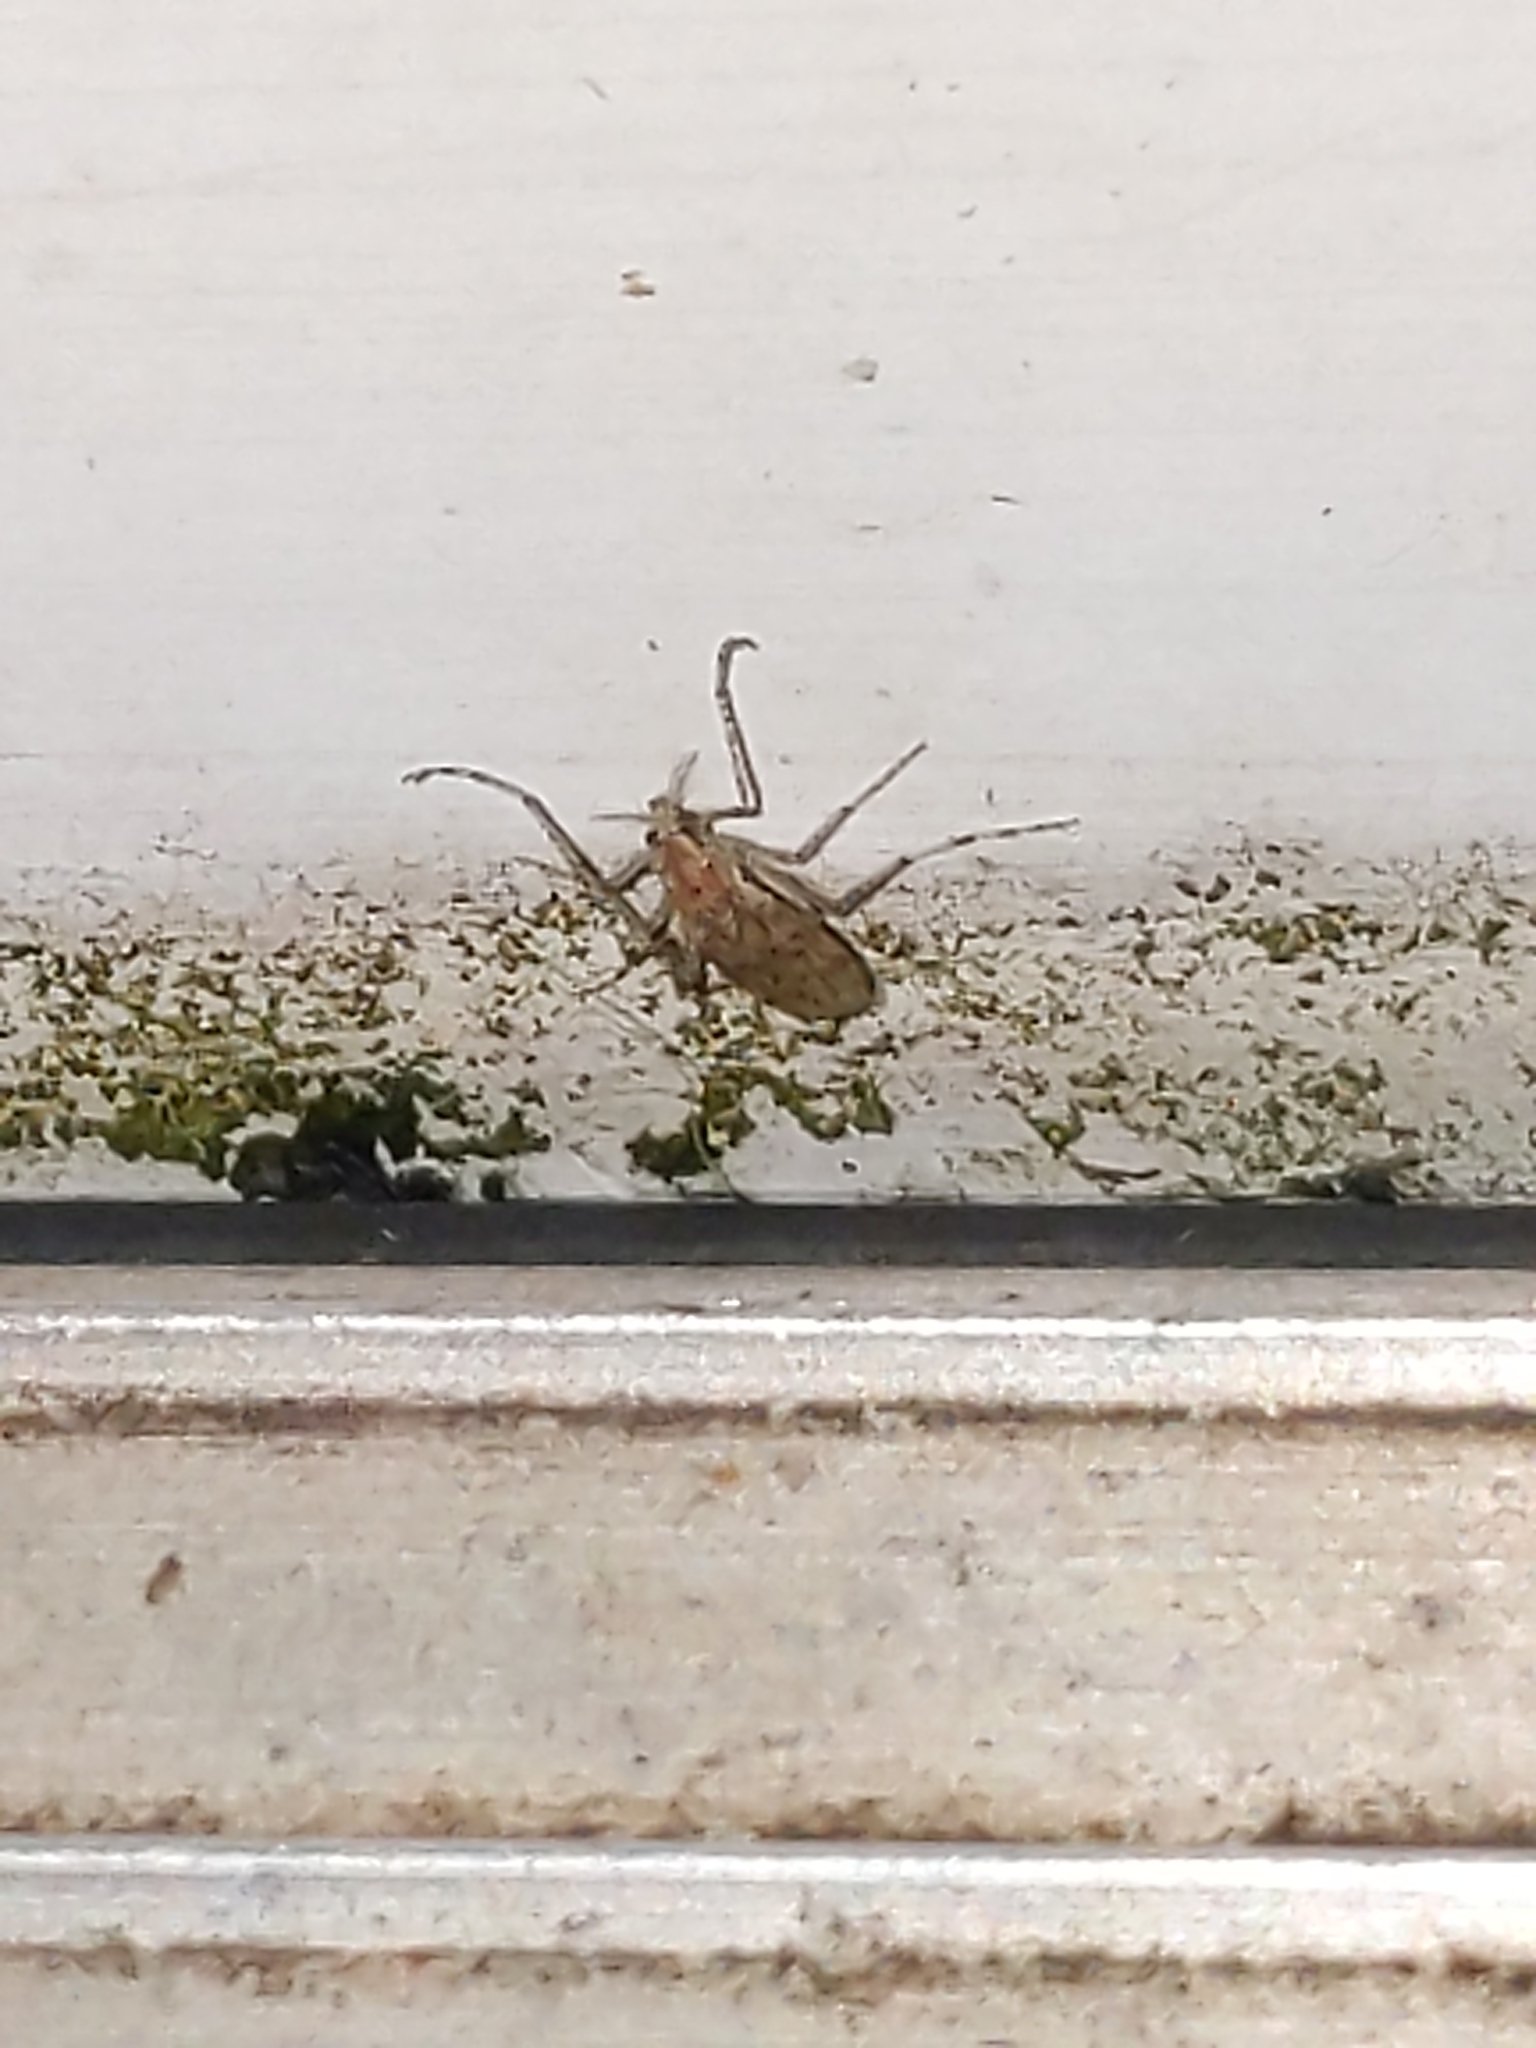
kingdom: Animalia
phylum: Arthropoda
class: Insecta
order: Diptera
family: Chaoboridae
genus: Chaoborus
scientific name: Chaoborus punctipennis
